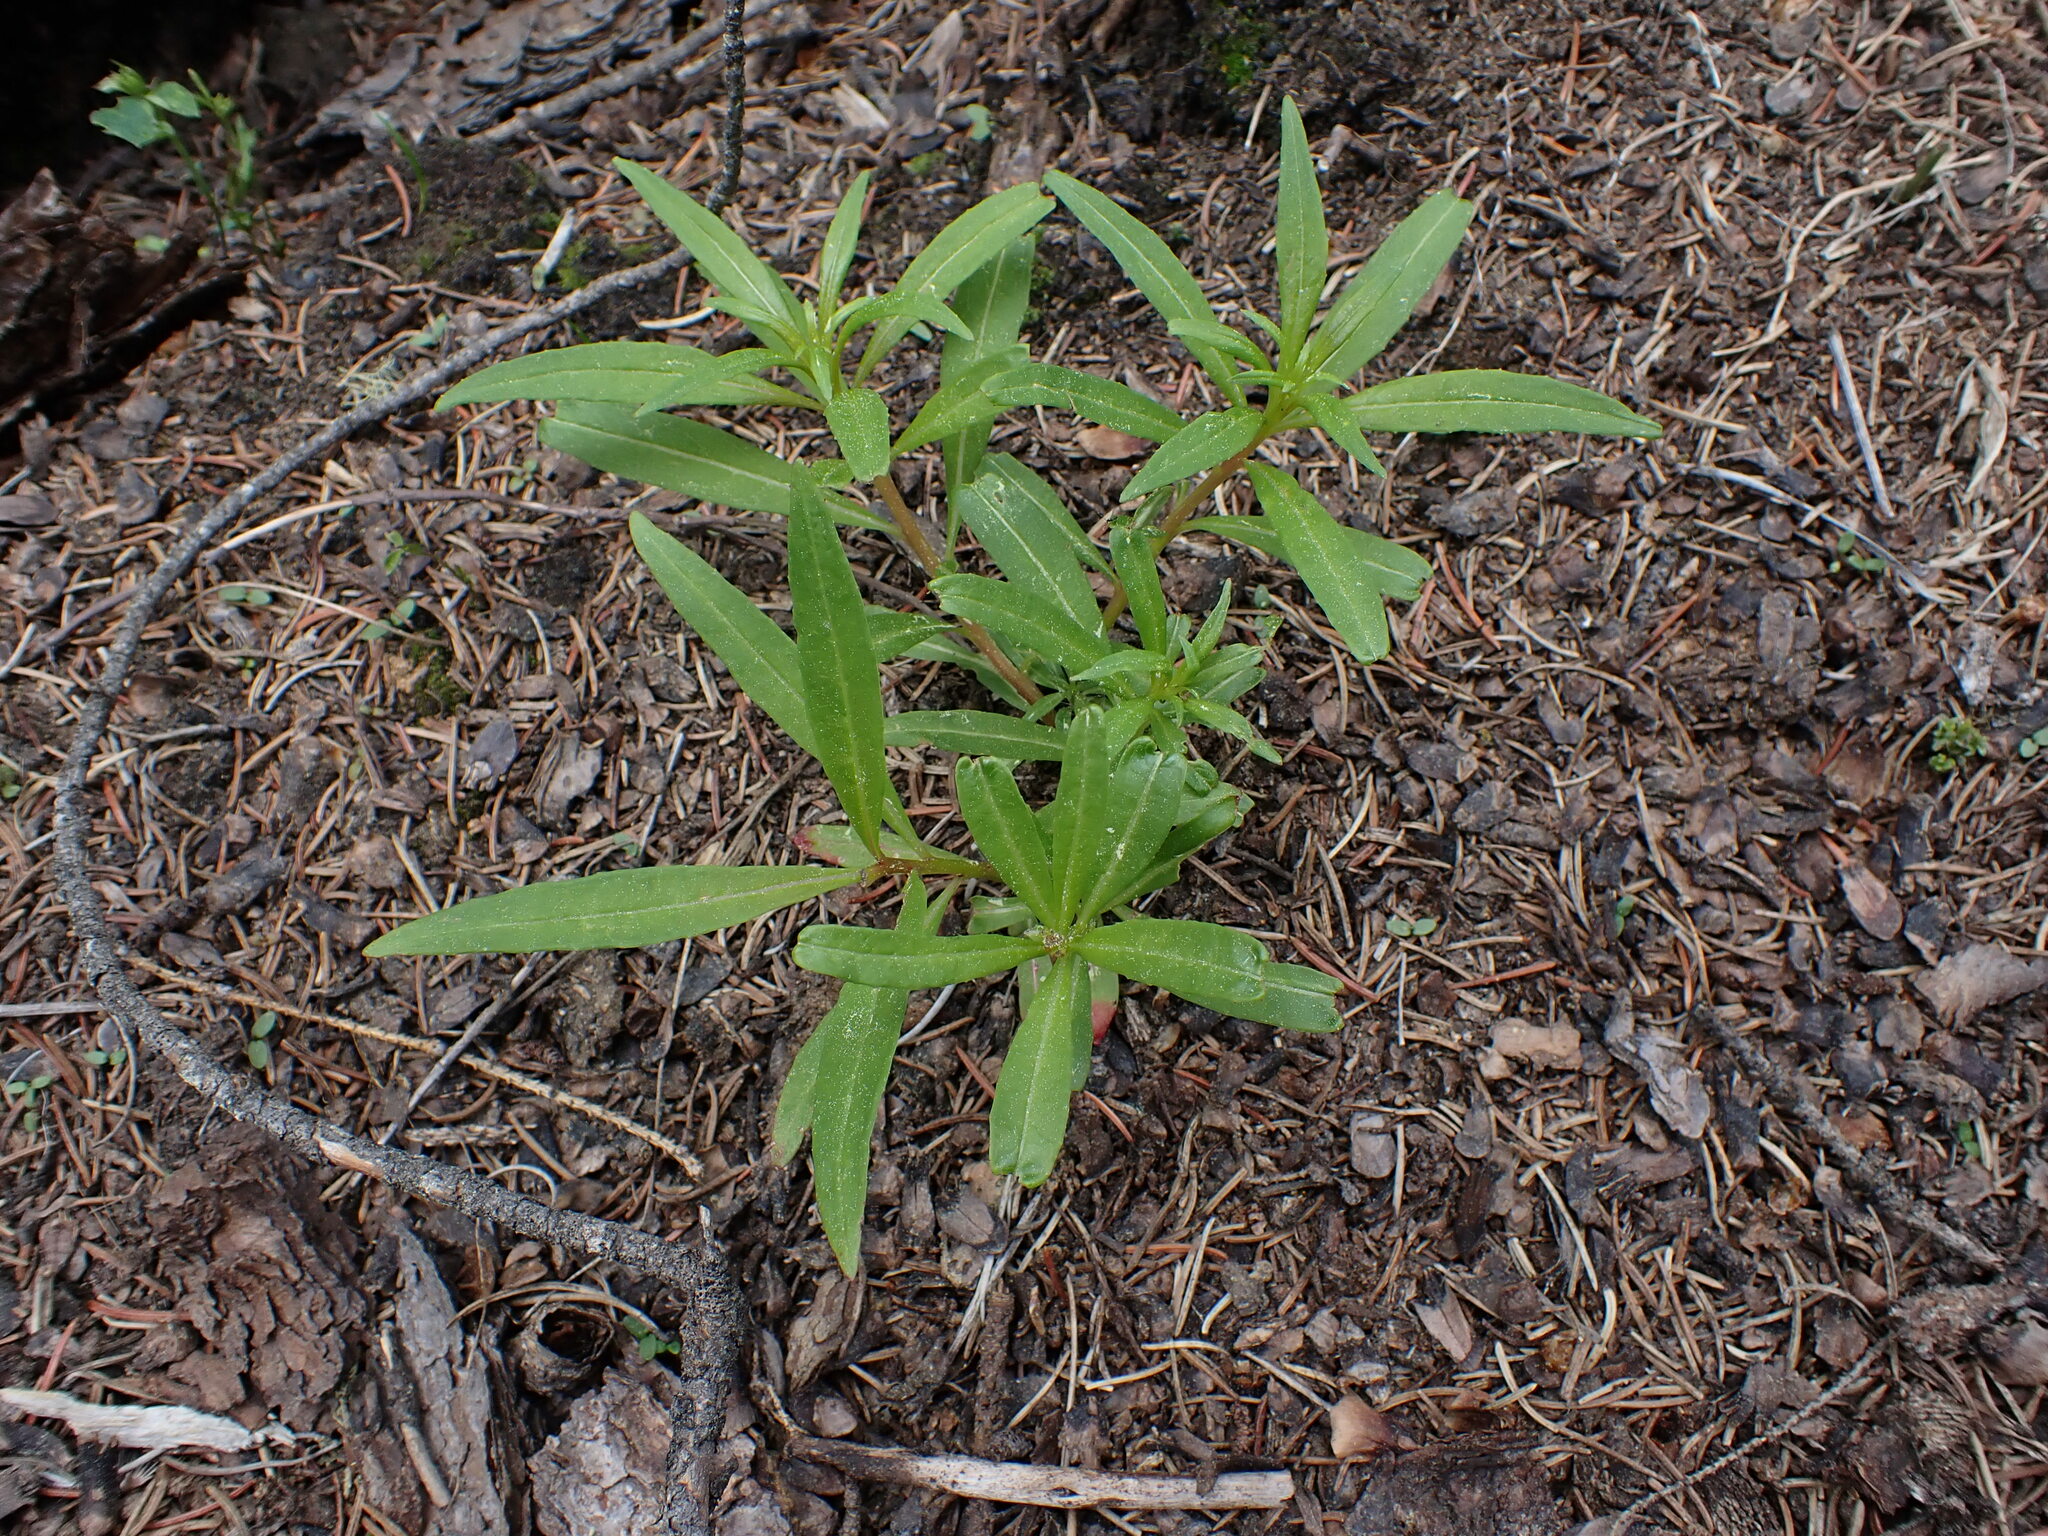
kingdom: Plantae
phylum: Tracheophyta
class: Magnoliopsida
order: Myrtales
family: Onagraceae
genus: Chamaenerion
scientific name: Chamaenerion angustifolium
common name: Fireweed
